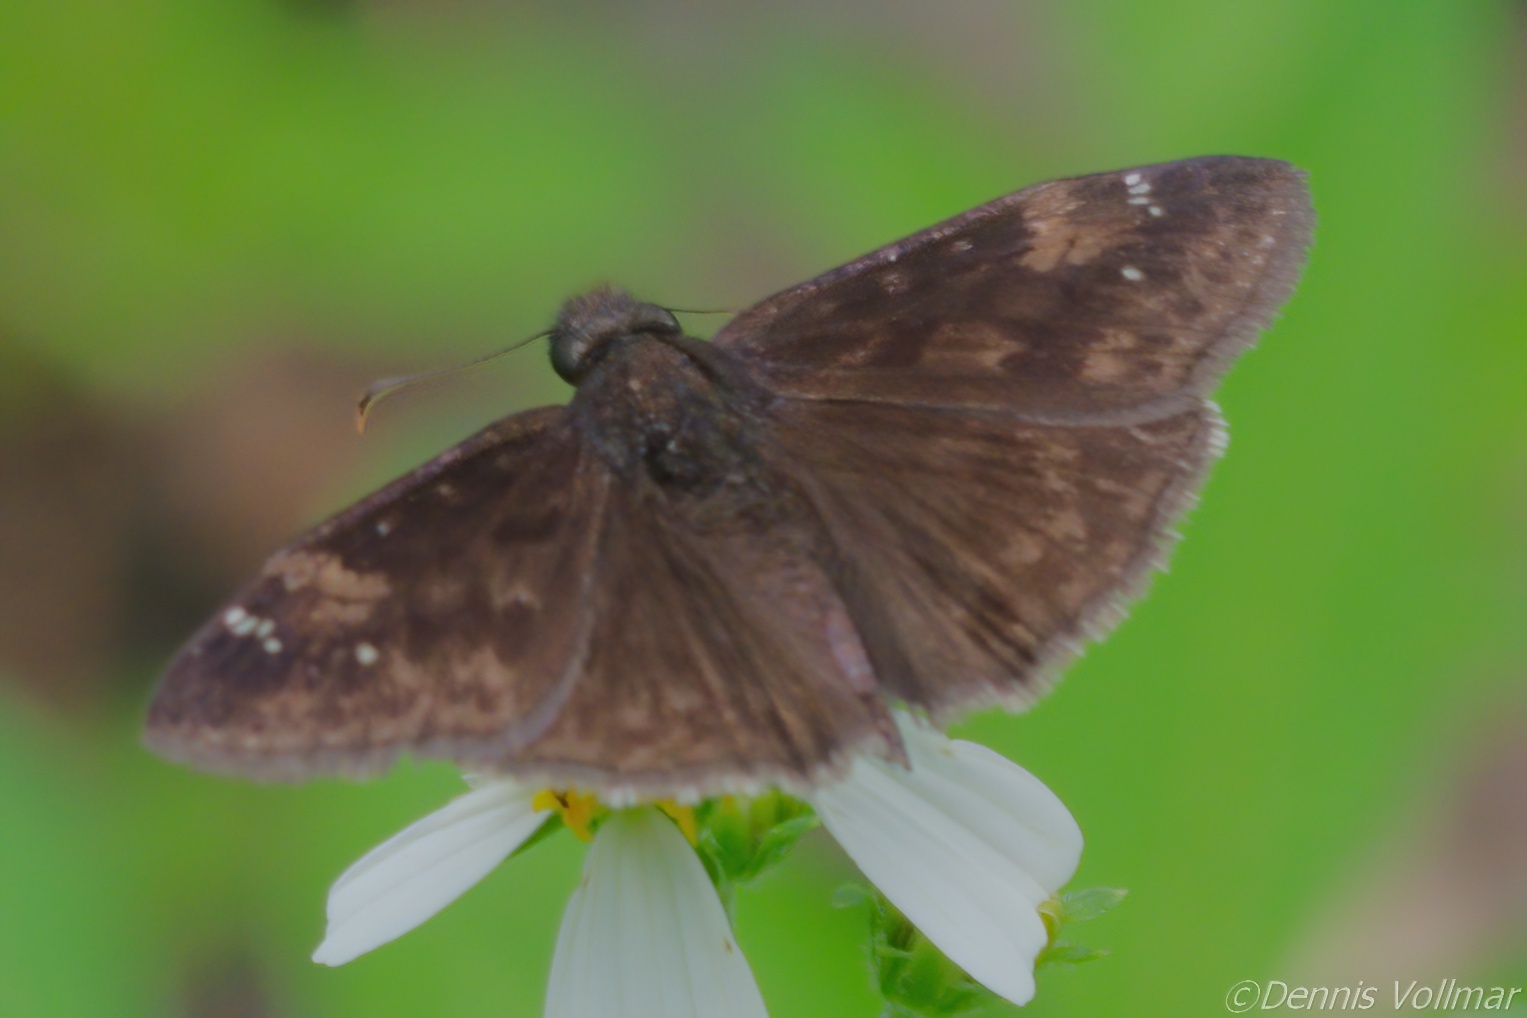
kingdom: Animalia
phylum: Arthropoda
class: Insecta
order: Lepidoptera
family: Hesperiidae
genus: Erynnis
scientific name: Erynnis zarucco
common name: Zarucco duskywing
